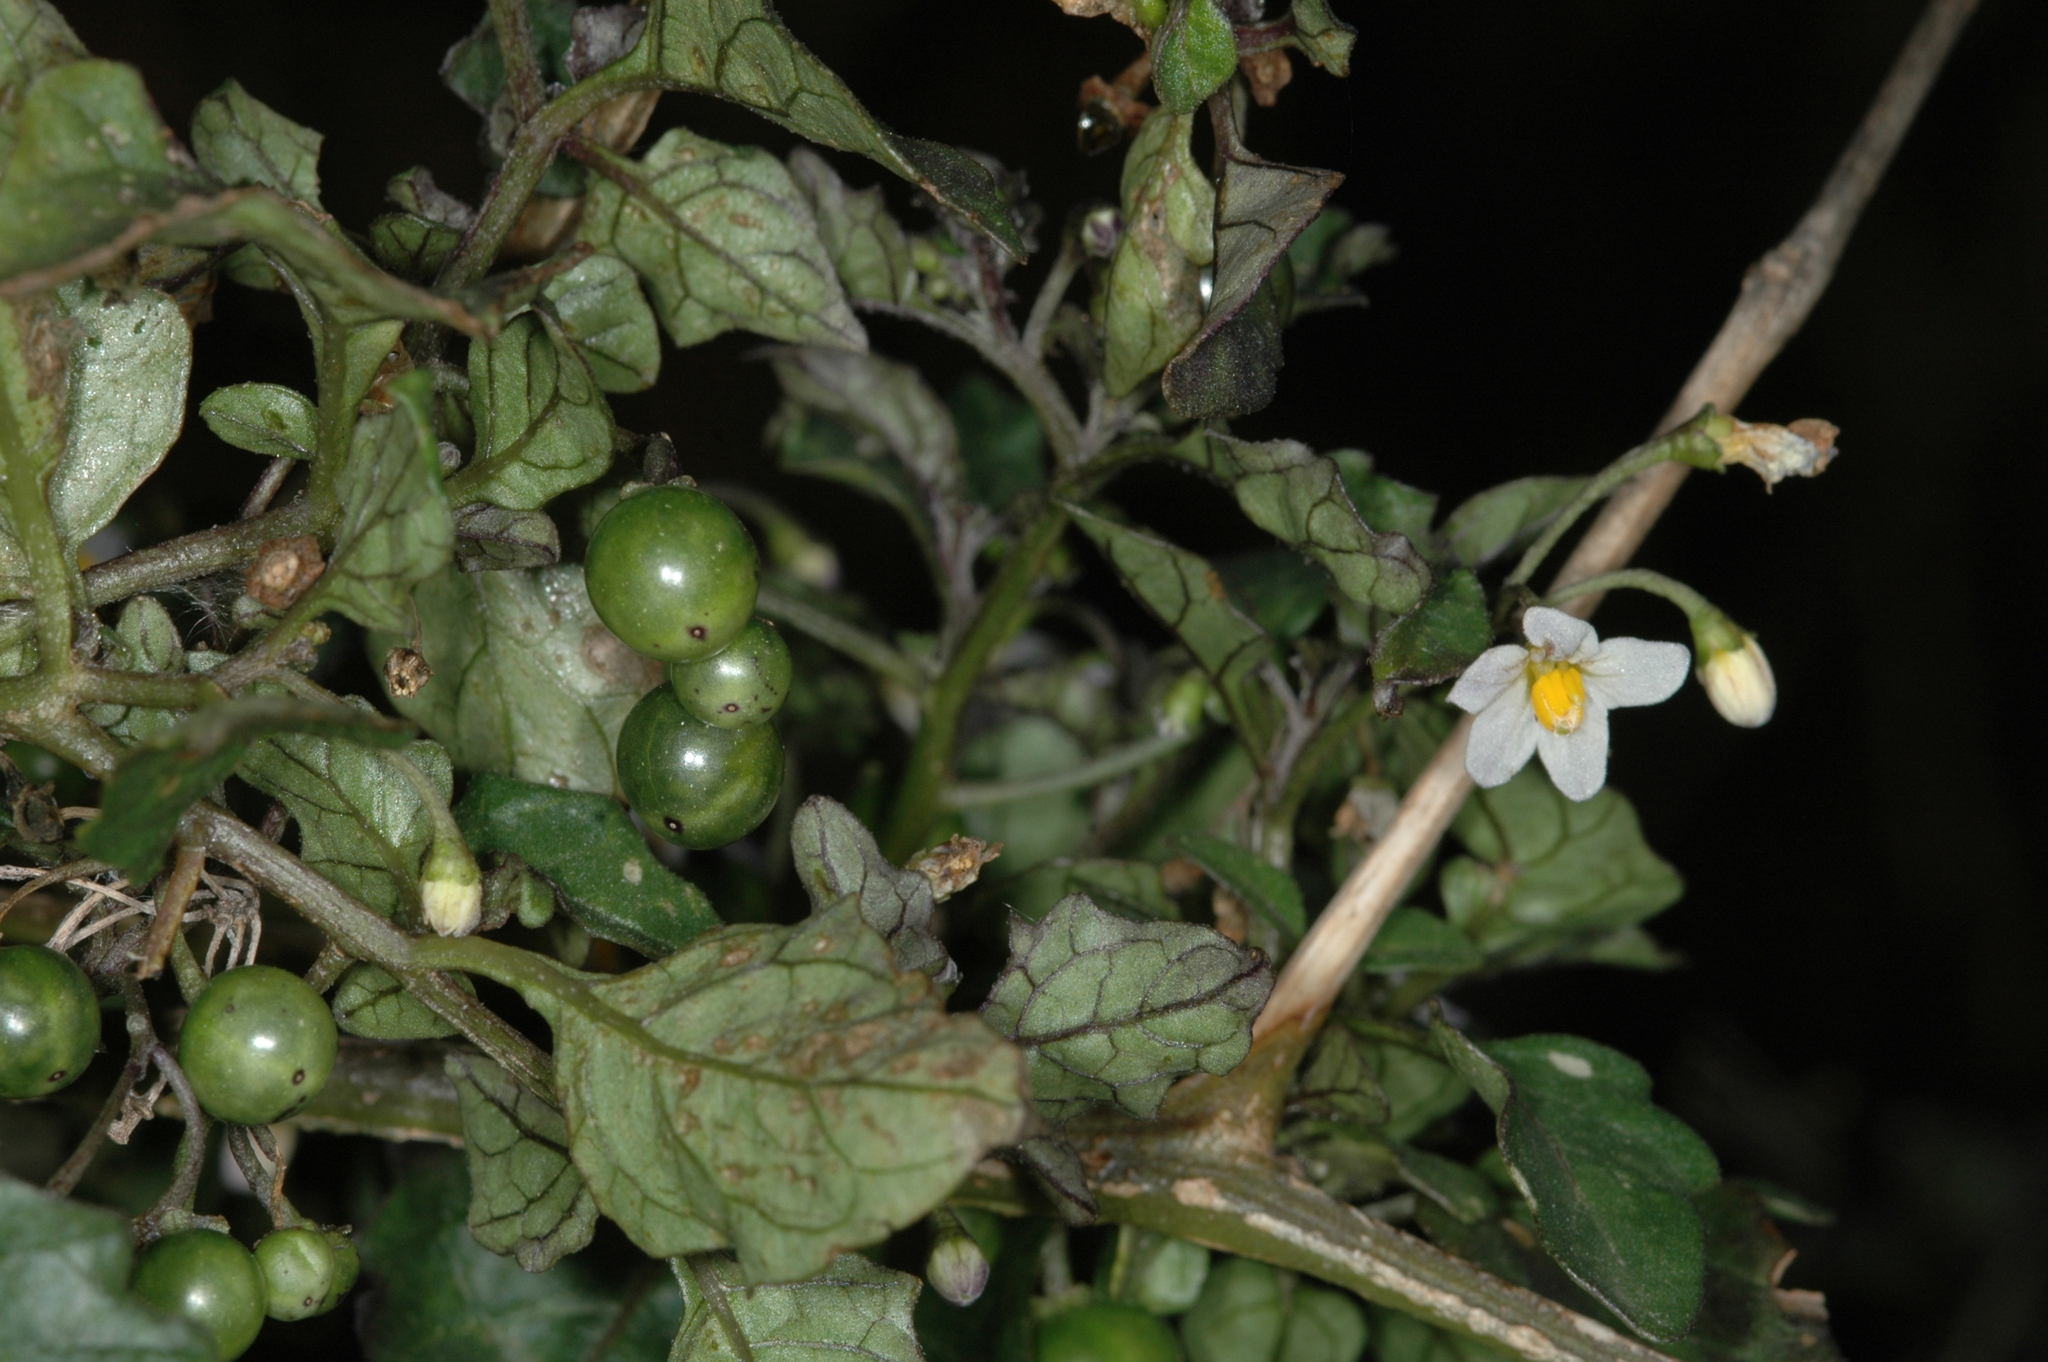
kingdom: Plantae
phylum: Tracheophyta
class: Magnoliopsida
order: Solanales
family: Solanaceae
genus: Solanum
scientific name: Solanum nigrum
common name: Black nightshade
